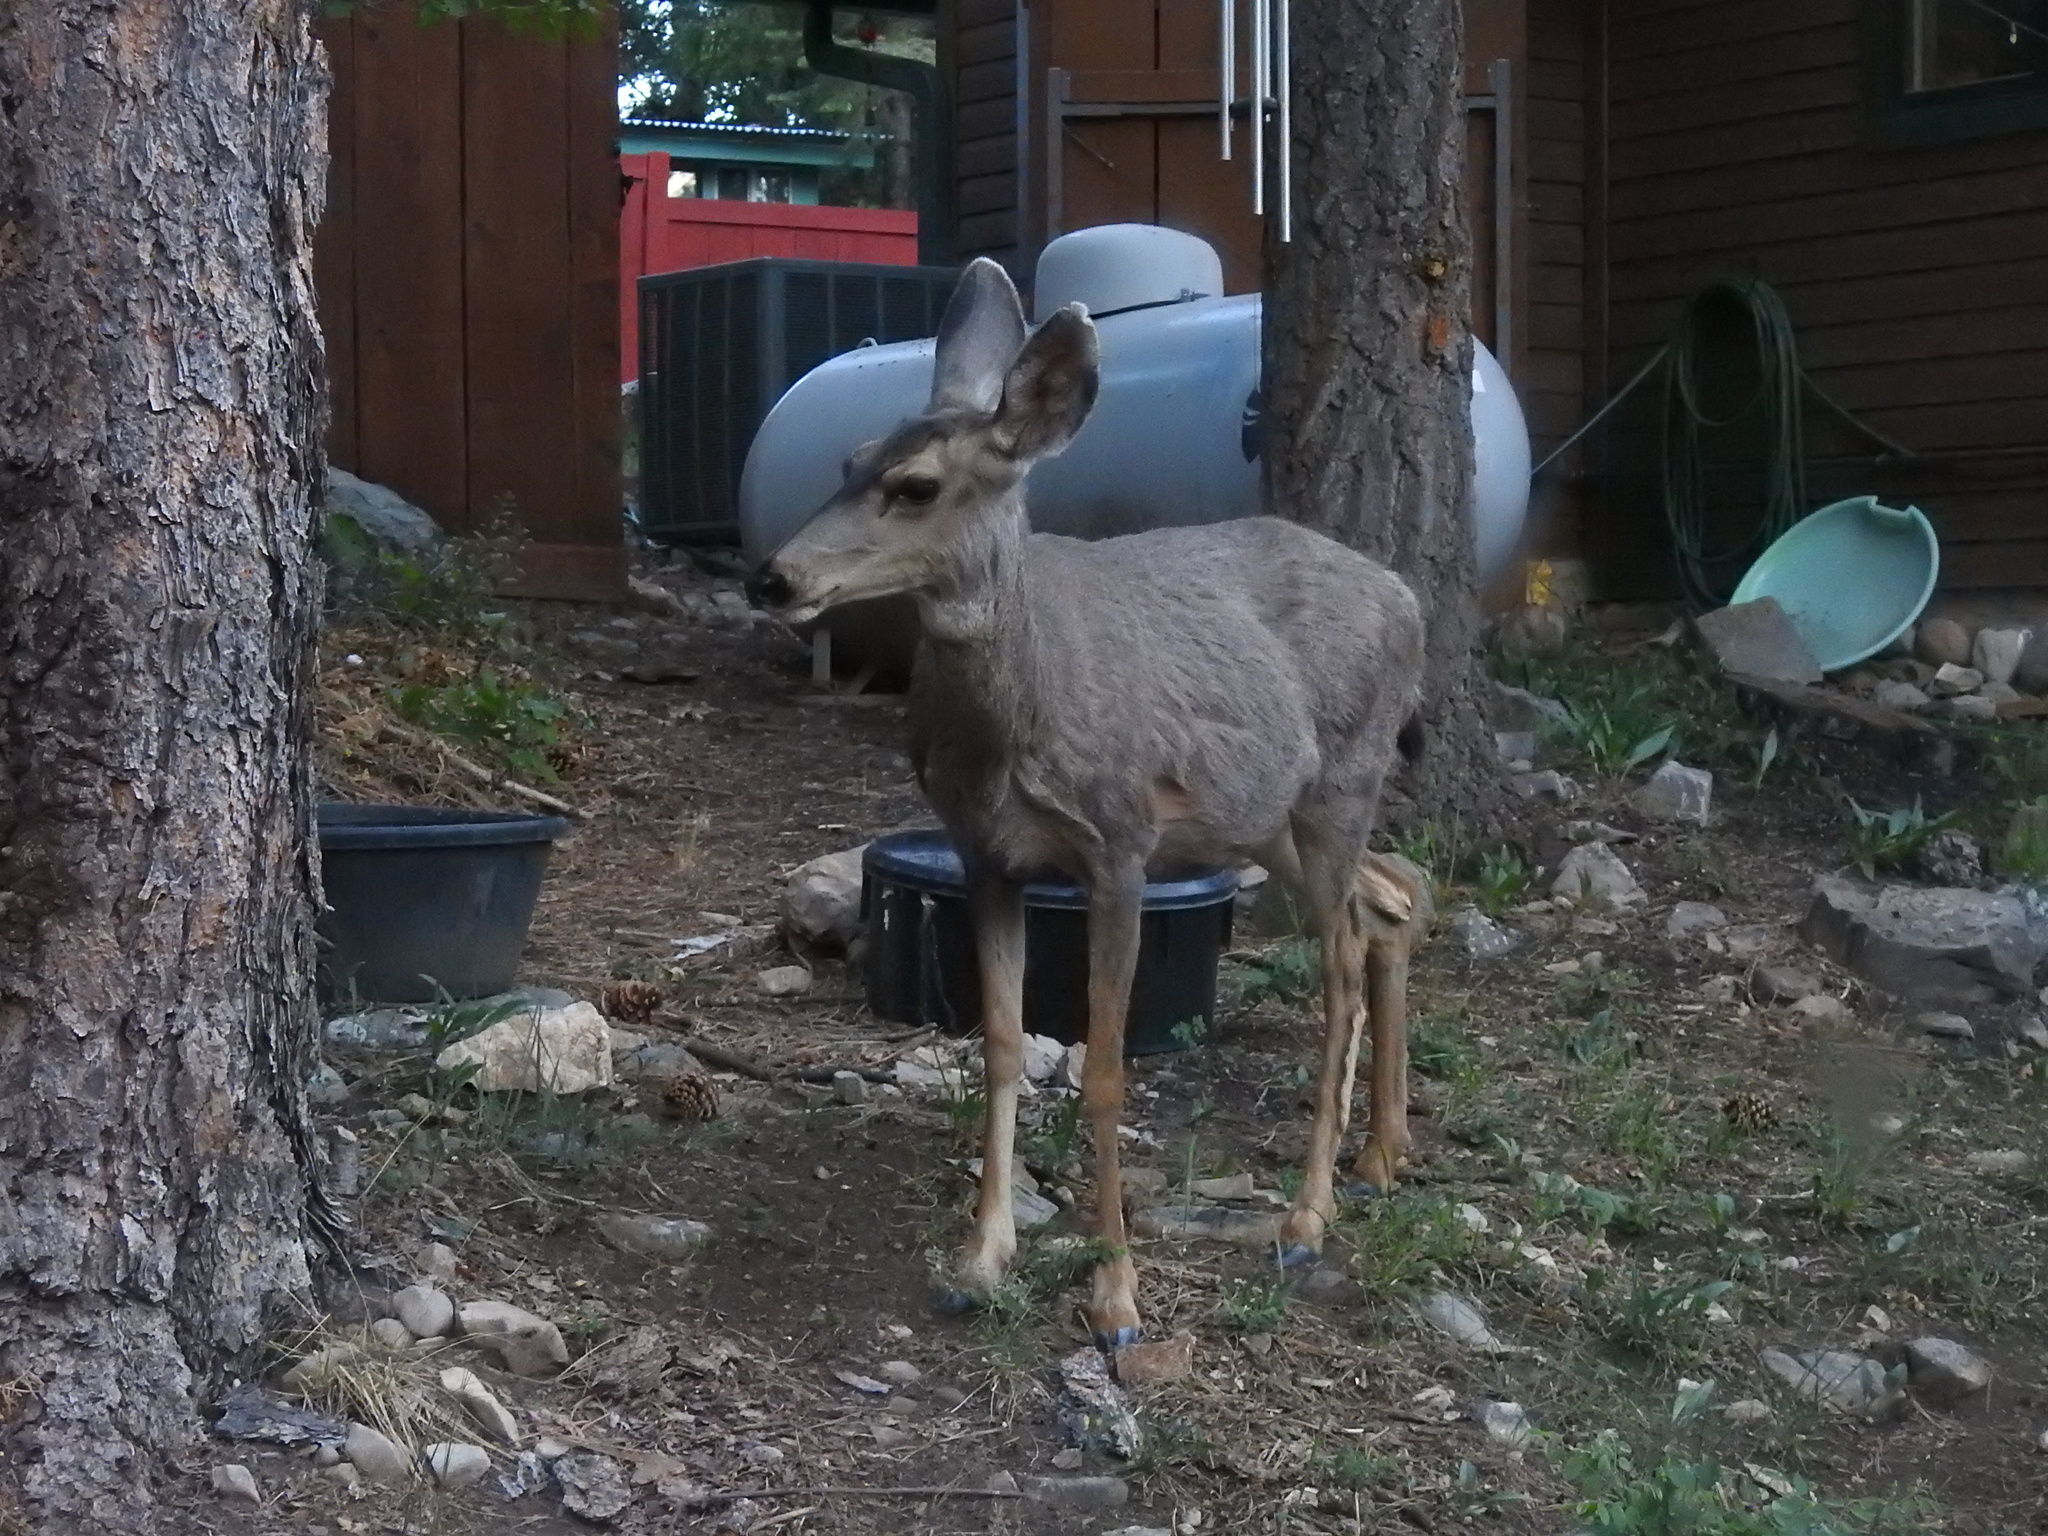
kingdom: Animalia
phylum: Chordata
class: Mammalia
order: Artiodactyla
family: Cervidae
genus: Odocoileus
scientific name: Odocoileus hemionus
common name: Mule deer
